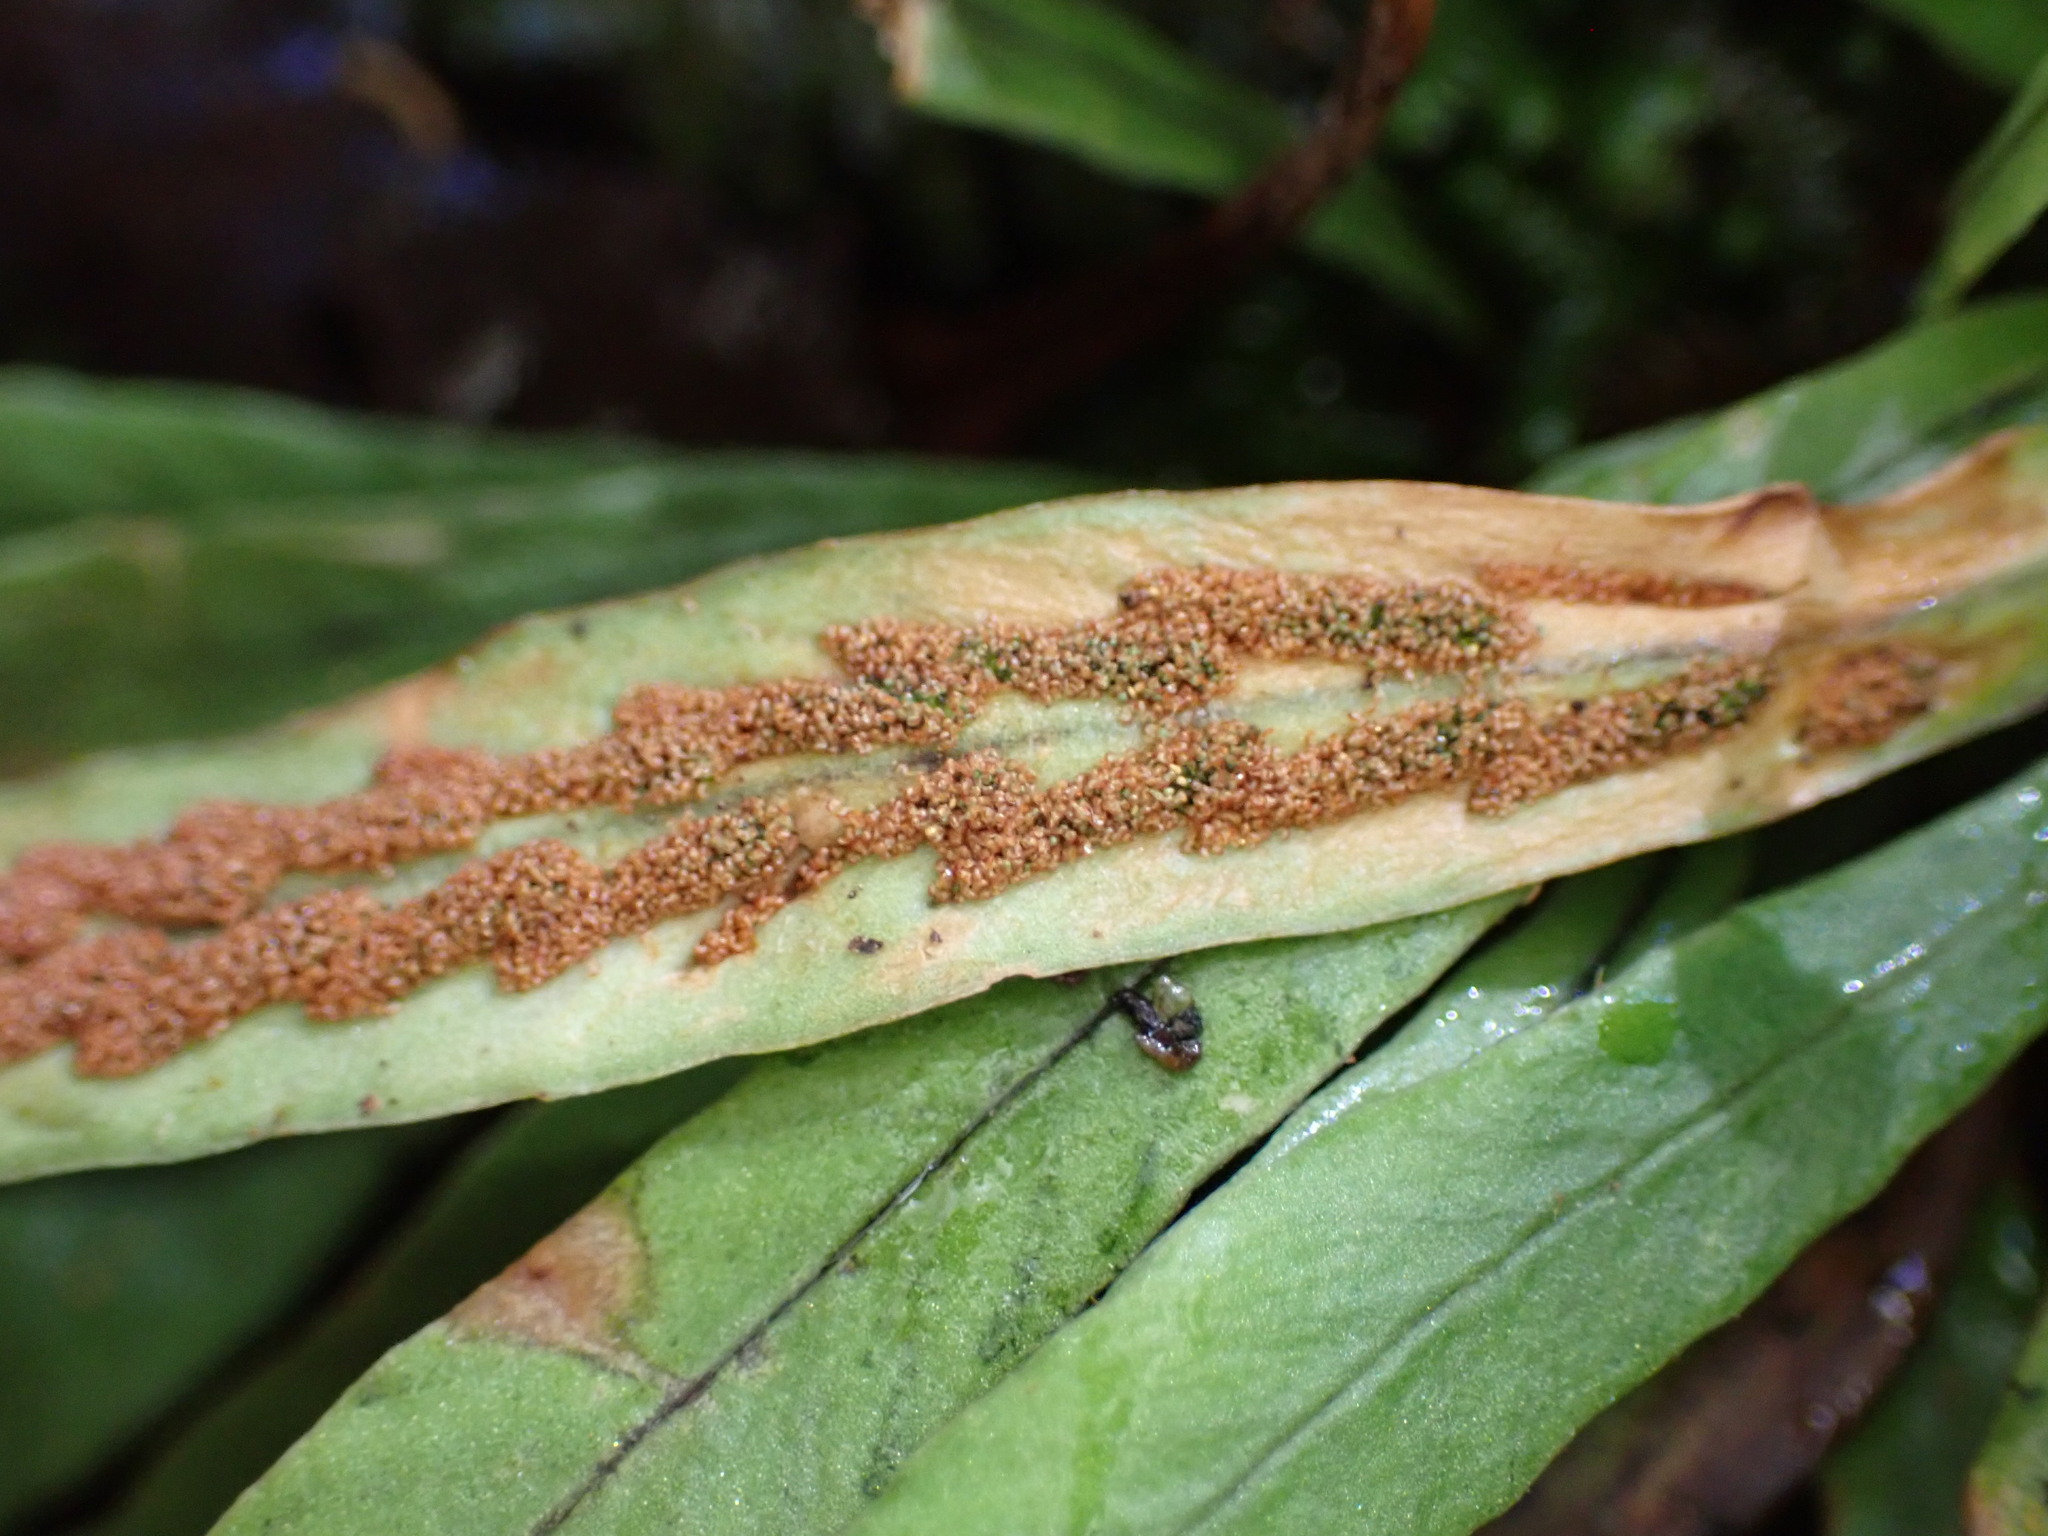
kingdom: Plantae
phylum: Tracheophyta
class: Polypodiopsida
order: Polypodiales
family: Polypodiaceae
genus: Notogrammitis
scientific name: Notogrammitis billardierei
